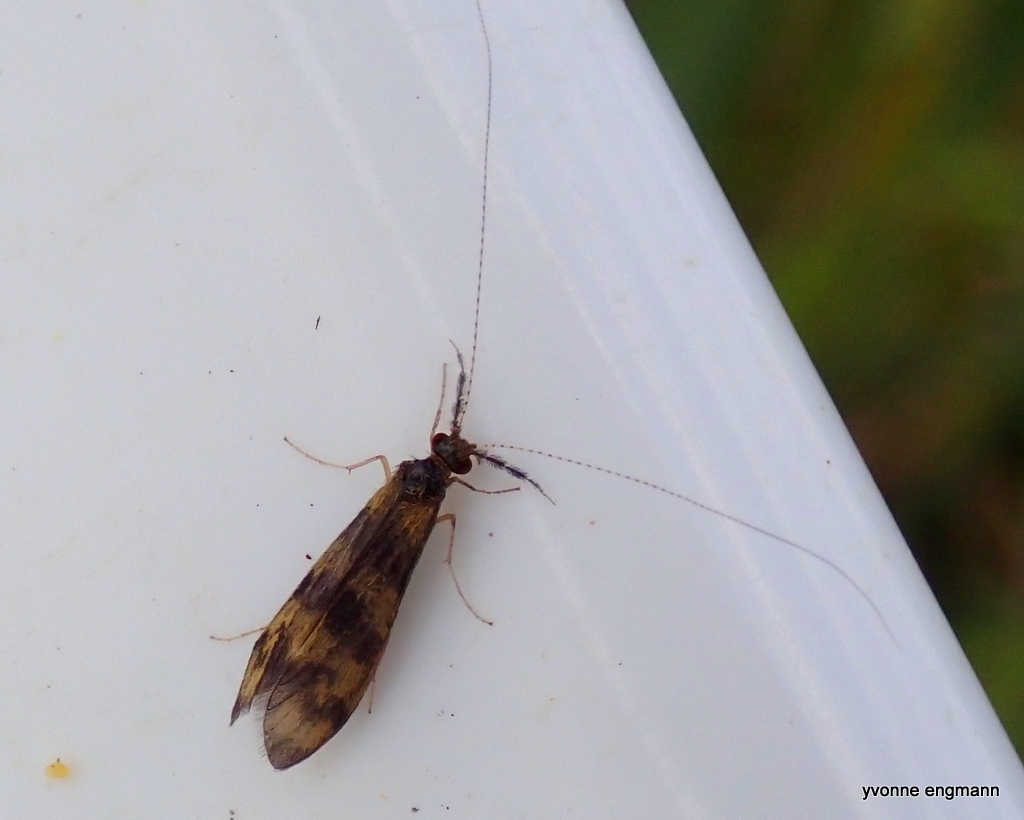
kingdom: Animalia
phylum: Arthropoda
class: Insecta
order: Trichoptera
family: Leptoceridae
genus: Mystacides
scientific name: Mystacides longicornis
